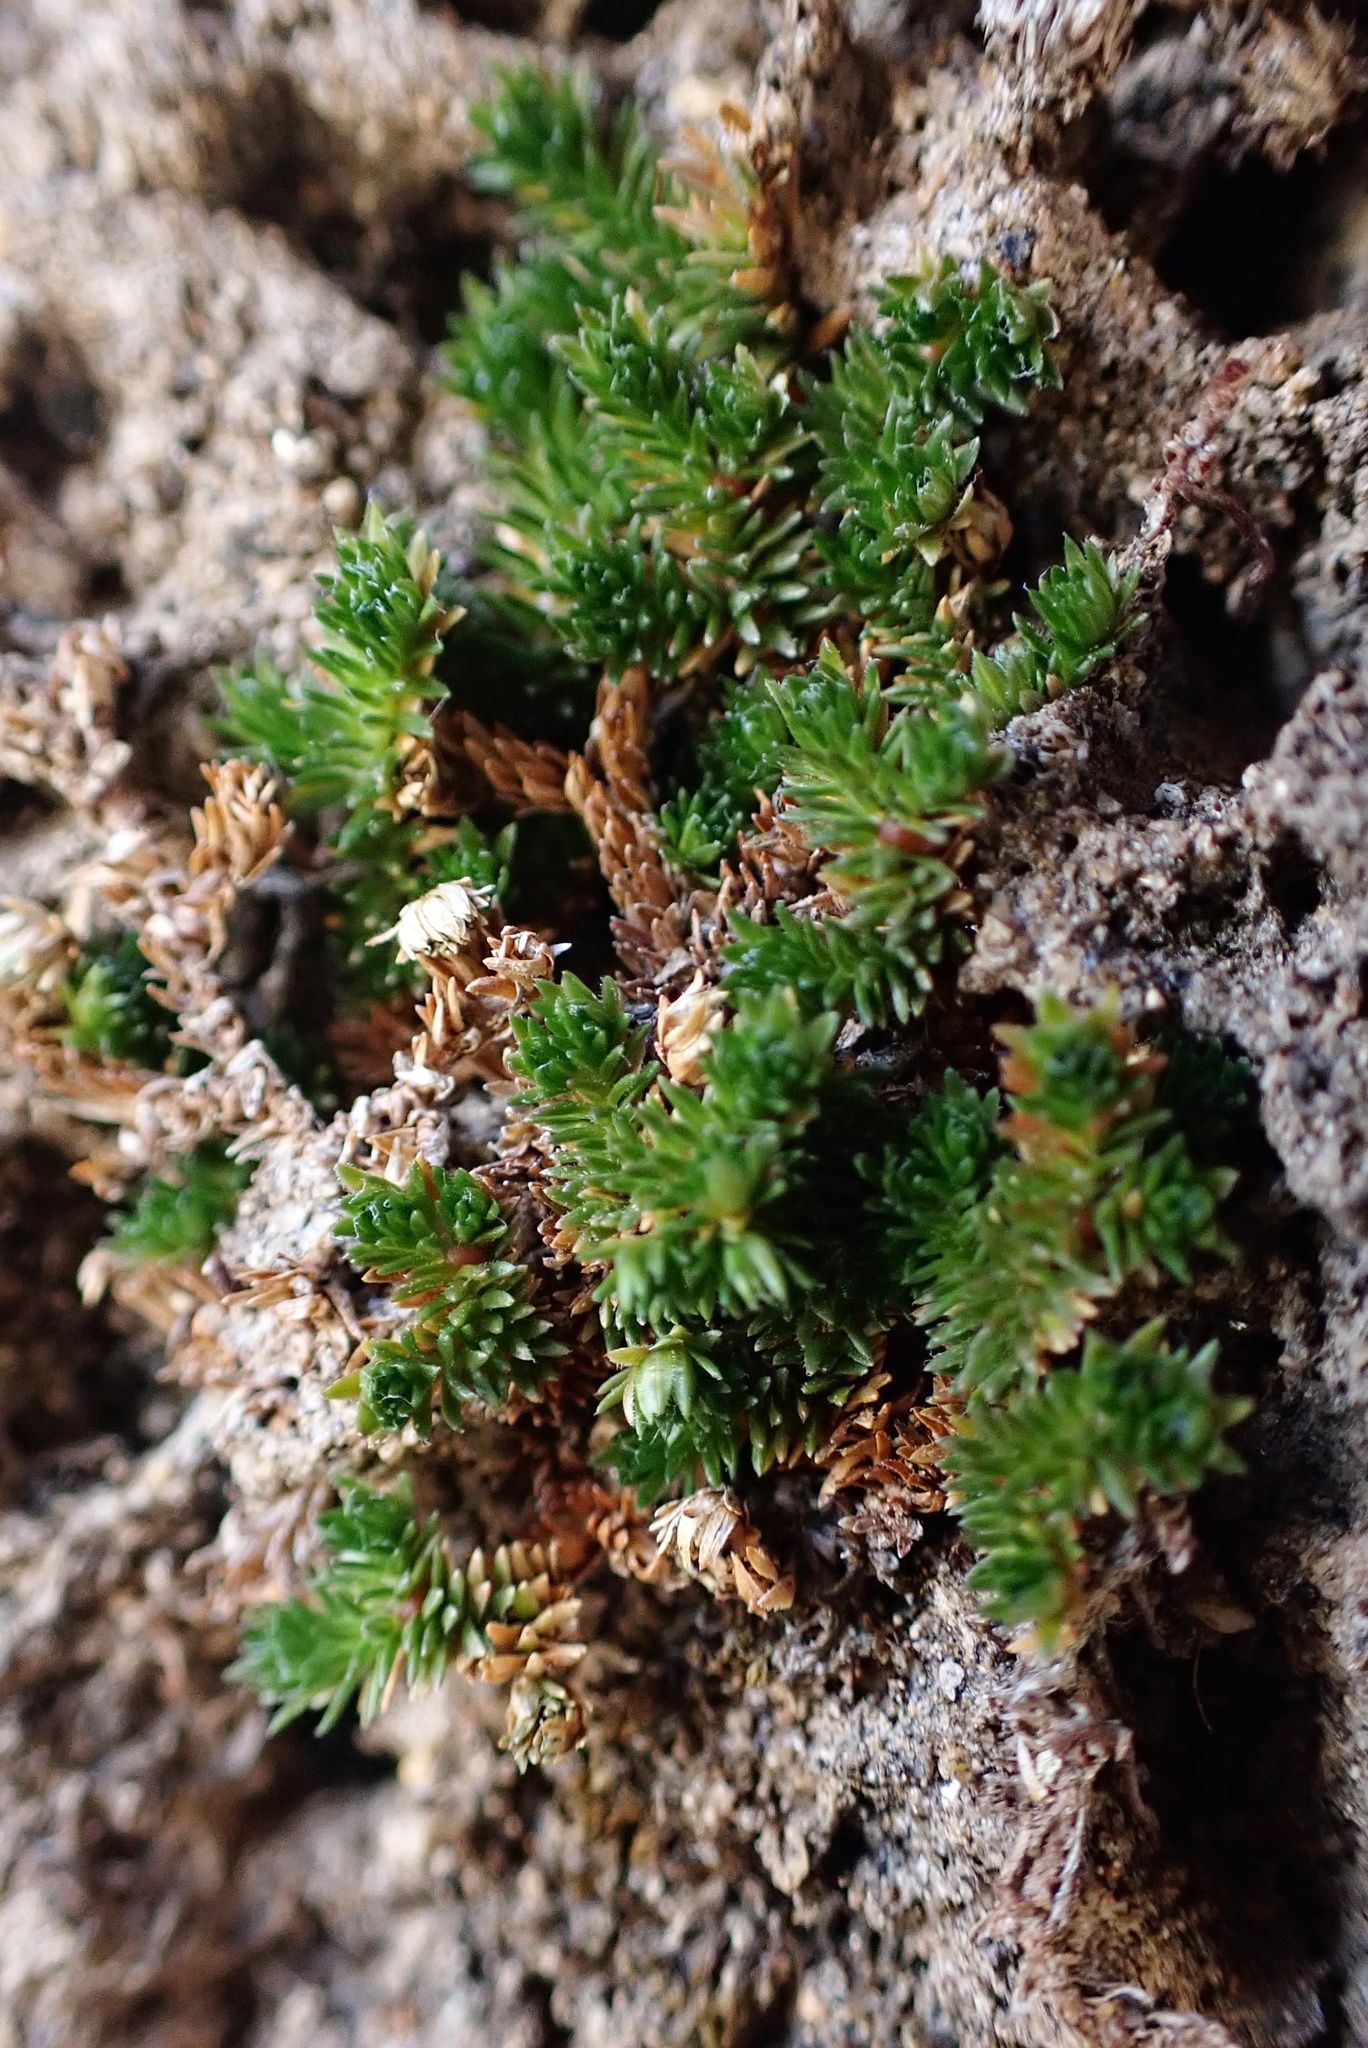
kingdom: Plantae
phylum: Tracheophyta
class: Lycopodiopsida
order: Selaginellales
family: Selaginellaceae
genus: Selaginella
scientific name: Selaginella eremophila
